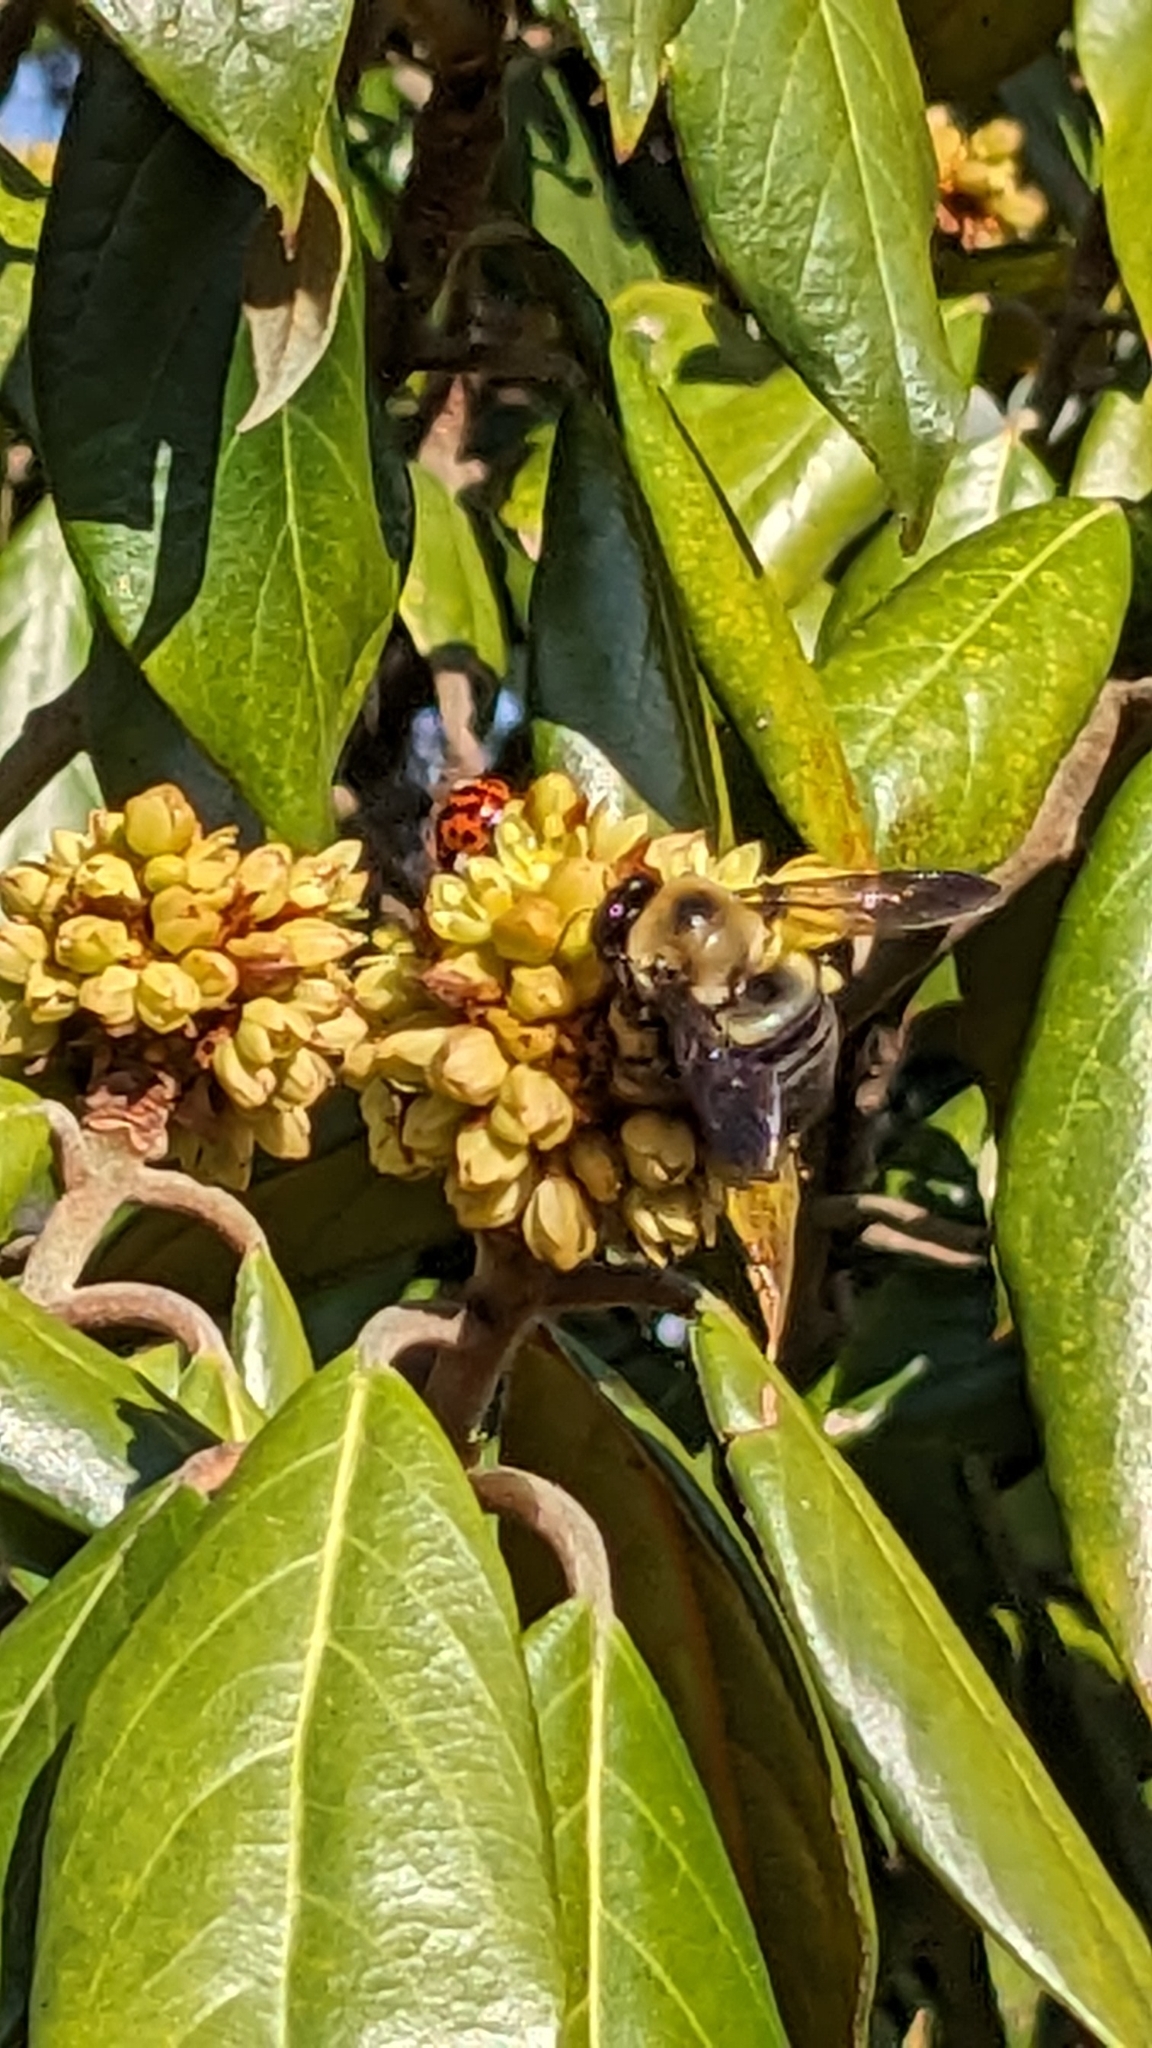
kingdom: Animalia
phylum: Arthropoda
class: Insecta
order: Coleoptera
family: Coccinellidae
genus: Harmonia
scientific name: Harmonia axyridis
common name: Harlequin ladybird
